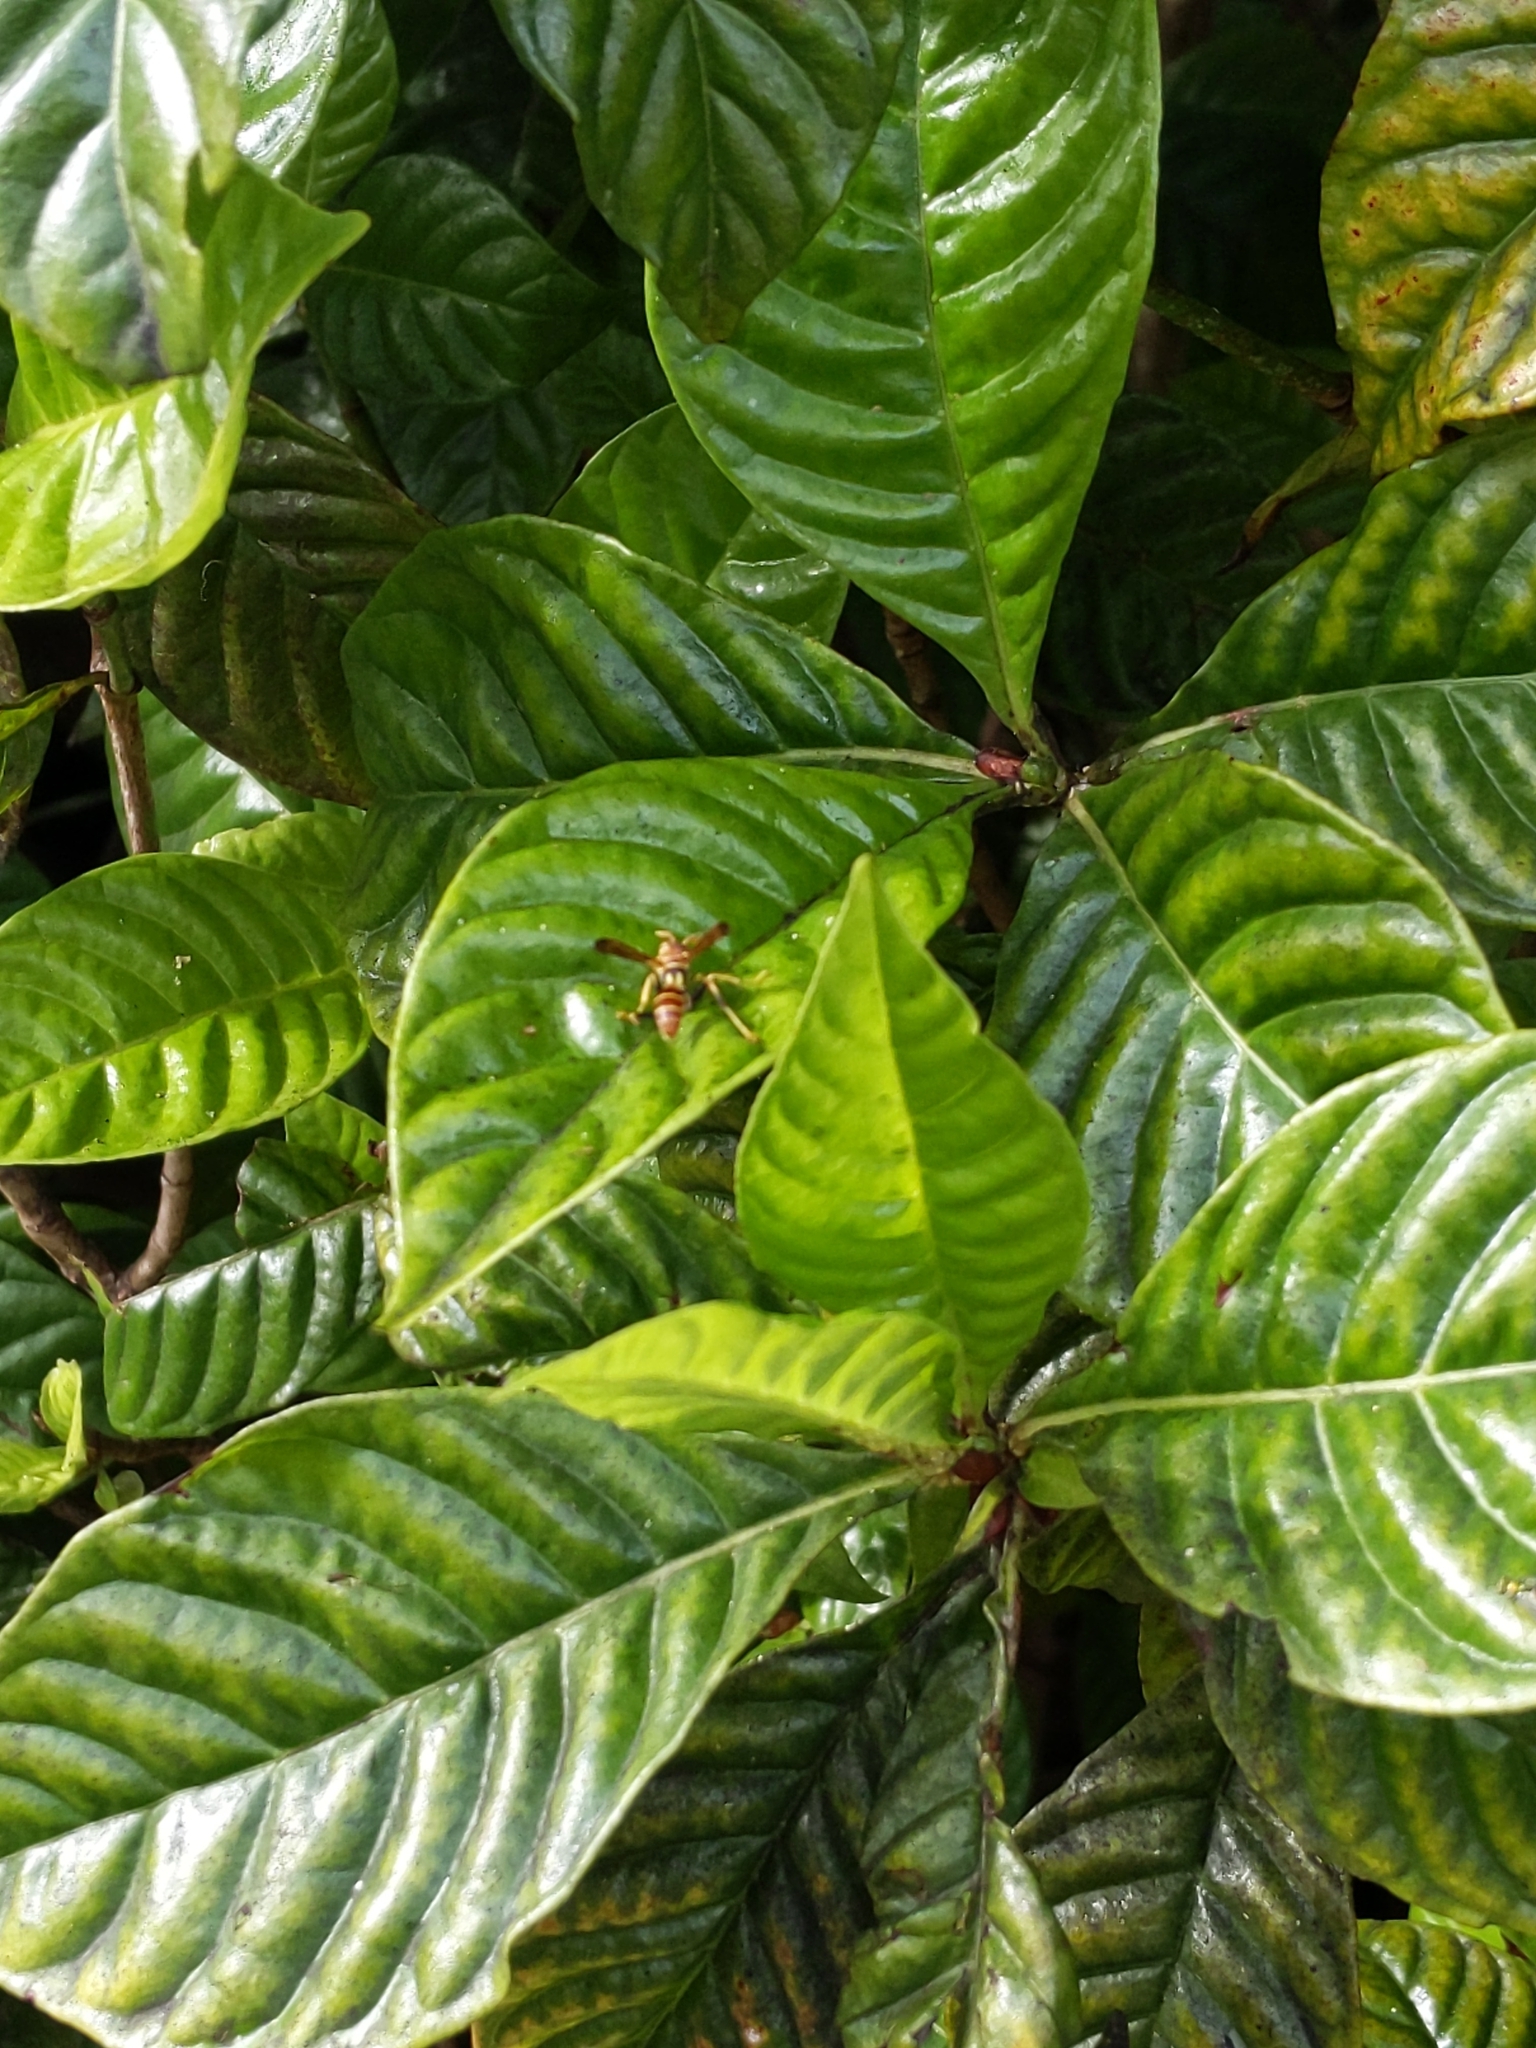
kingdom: Animalia
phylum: Arthropoda
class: Insecta
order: Hymenoptera
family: Vespidae
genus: Mischocyttarus
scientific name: Mischocyttarus mexicanus
